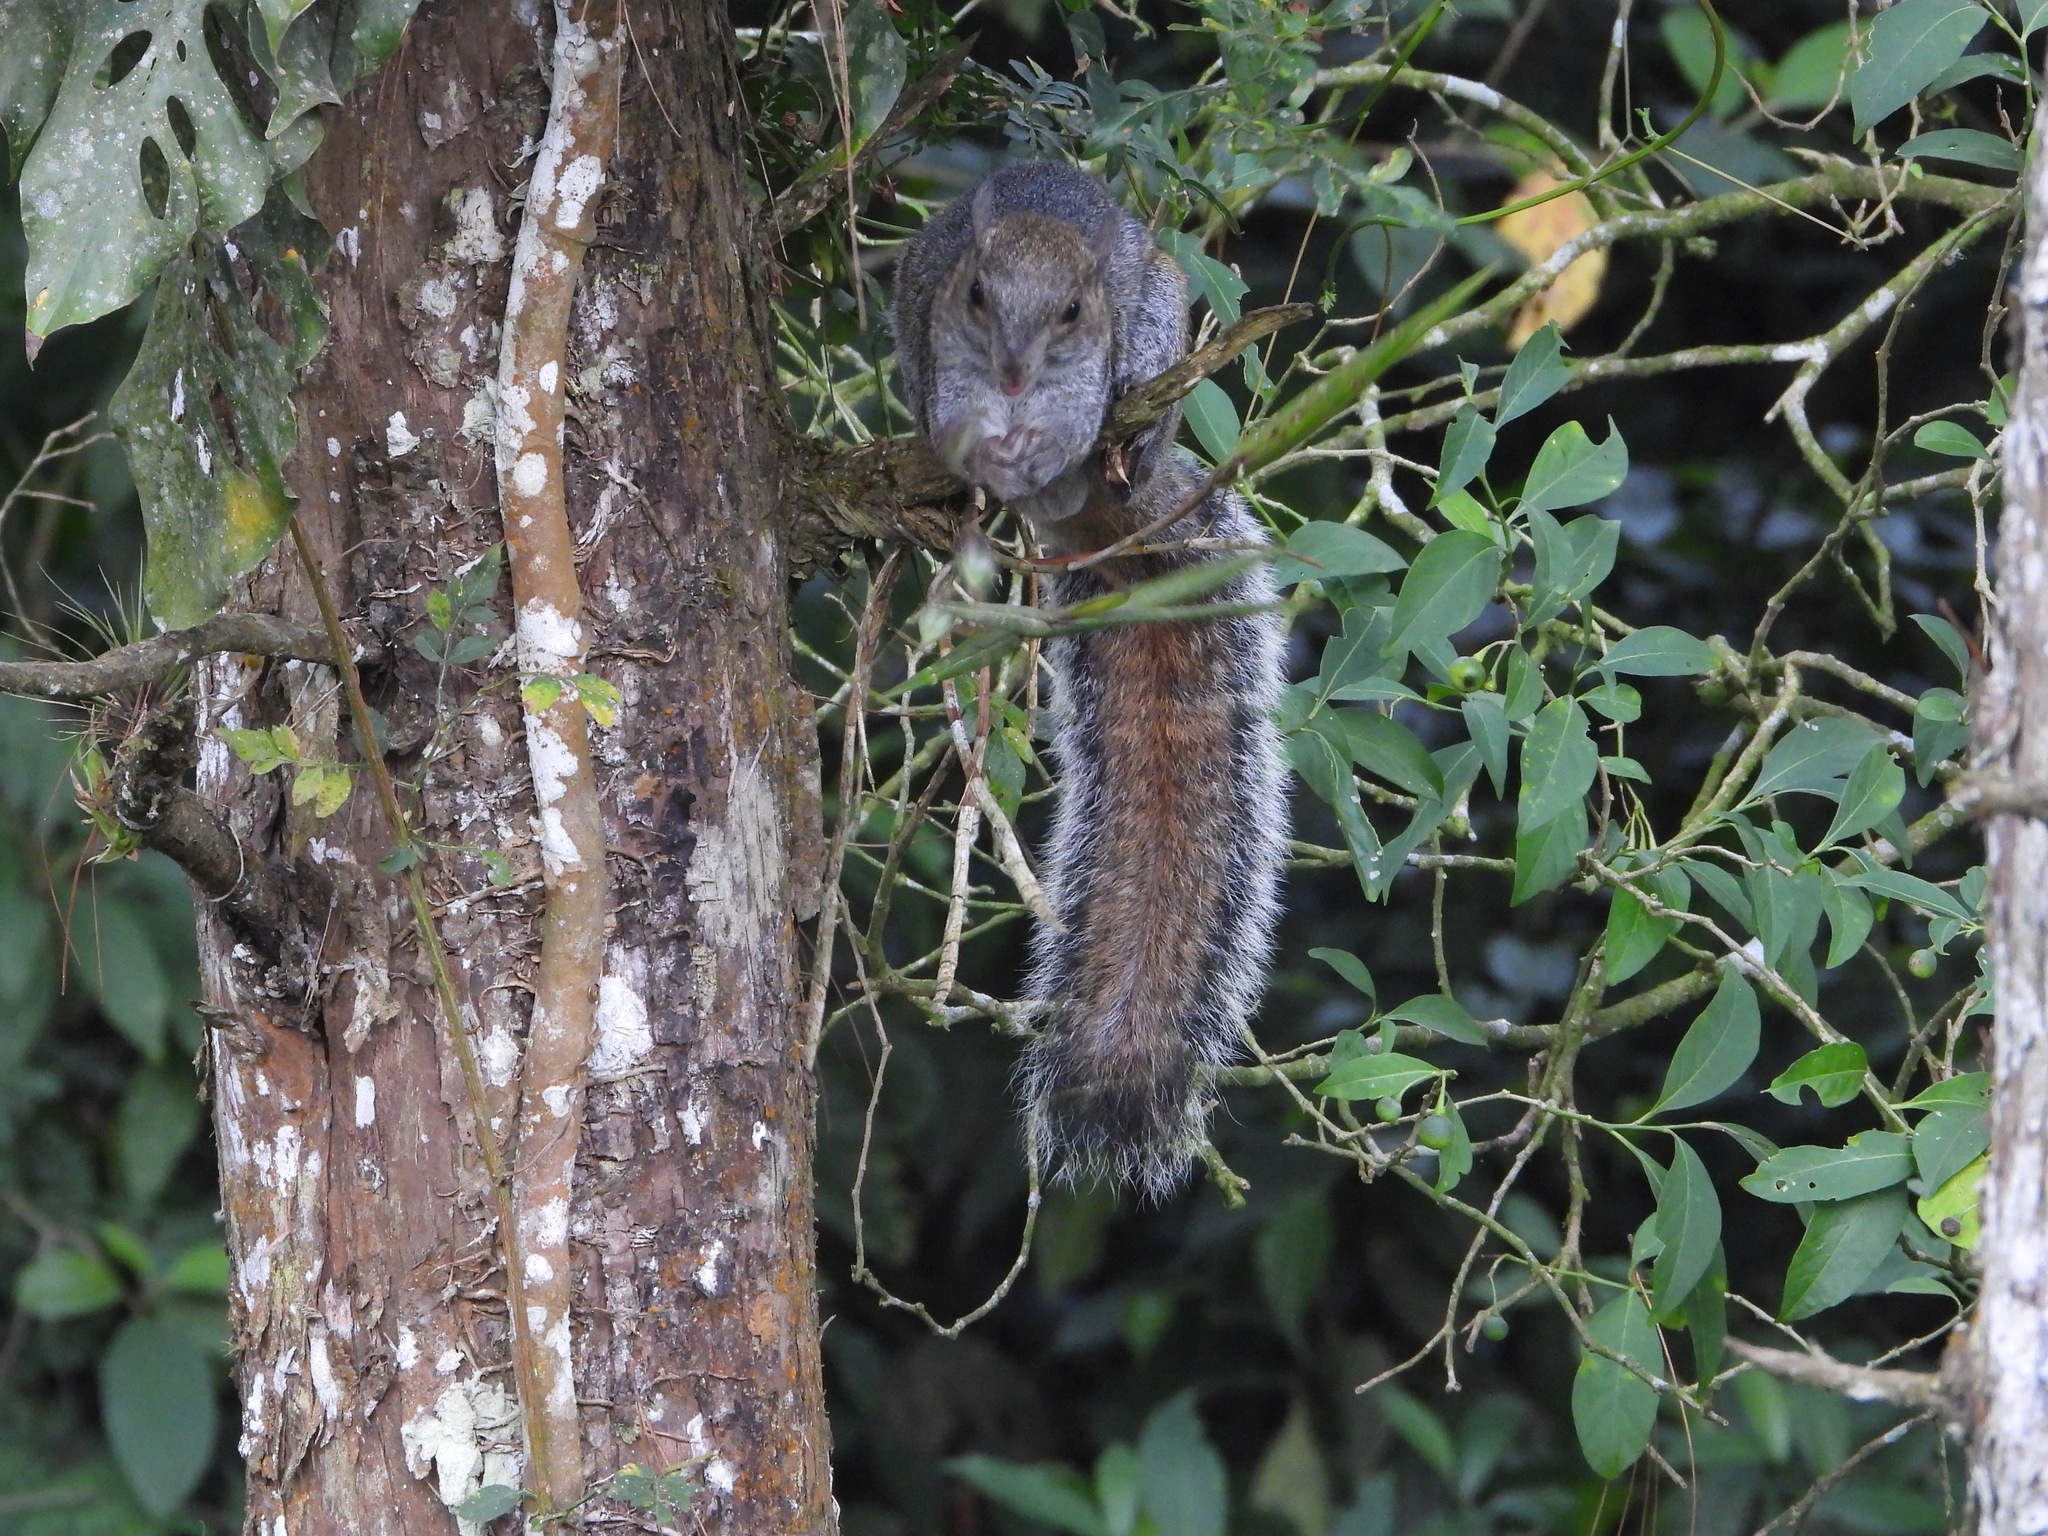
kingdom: Animalia
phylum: Chordata
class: Mammalia
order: Rodentia
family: Sciuridae
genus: Sciurus
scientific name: Sciurus variegatoides
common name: Variegated squirrel
